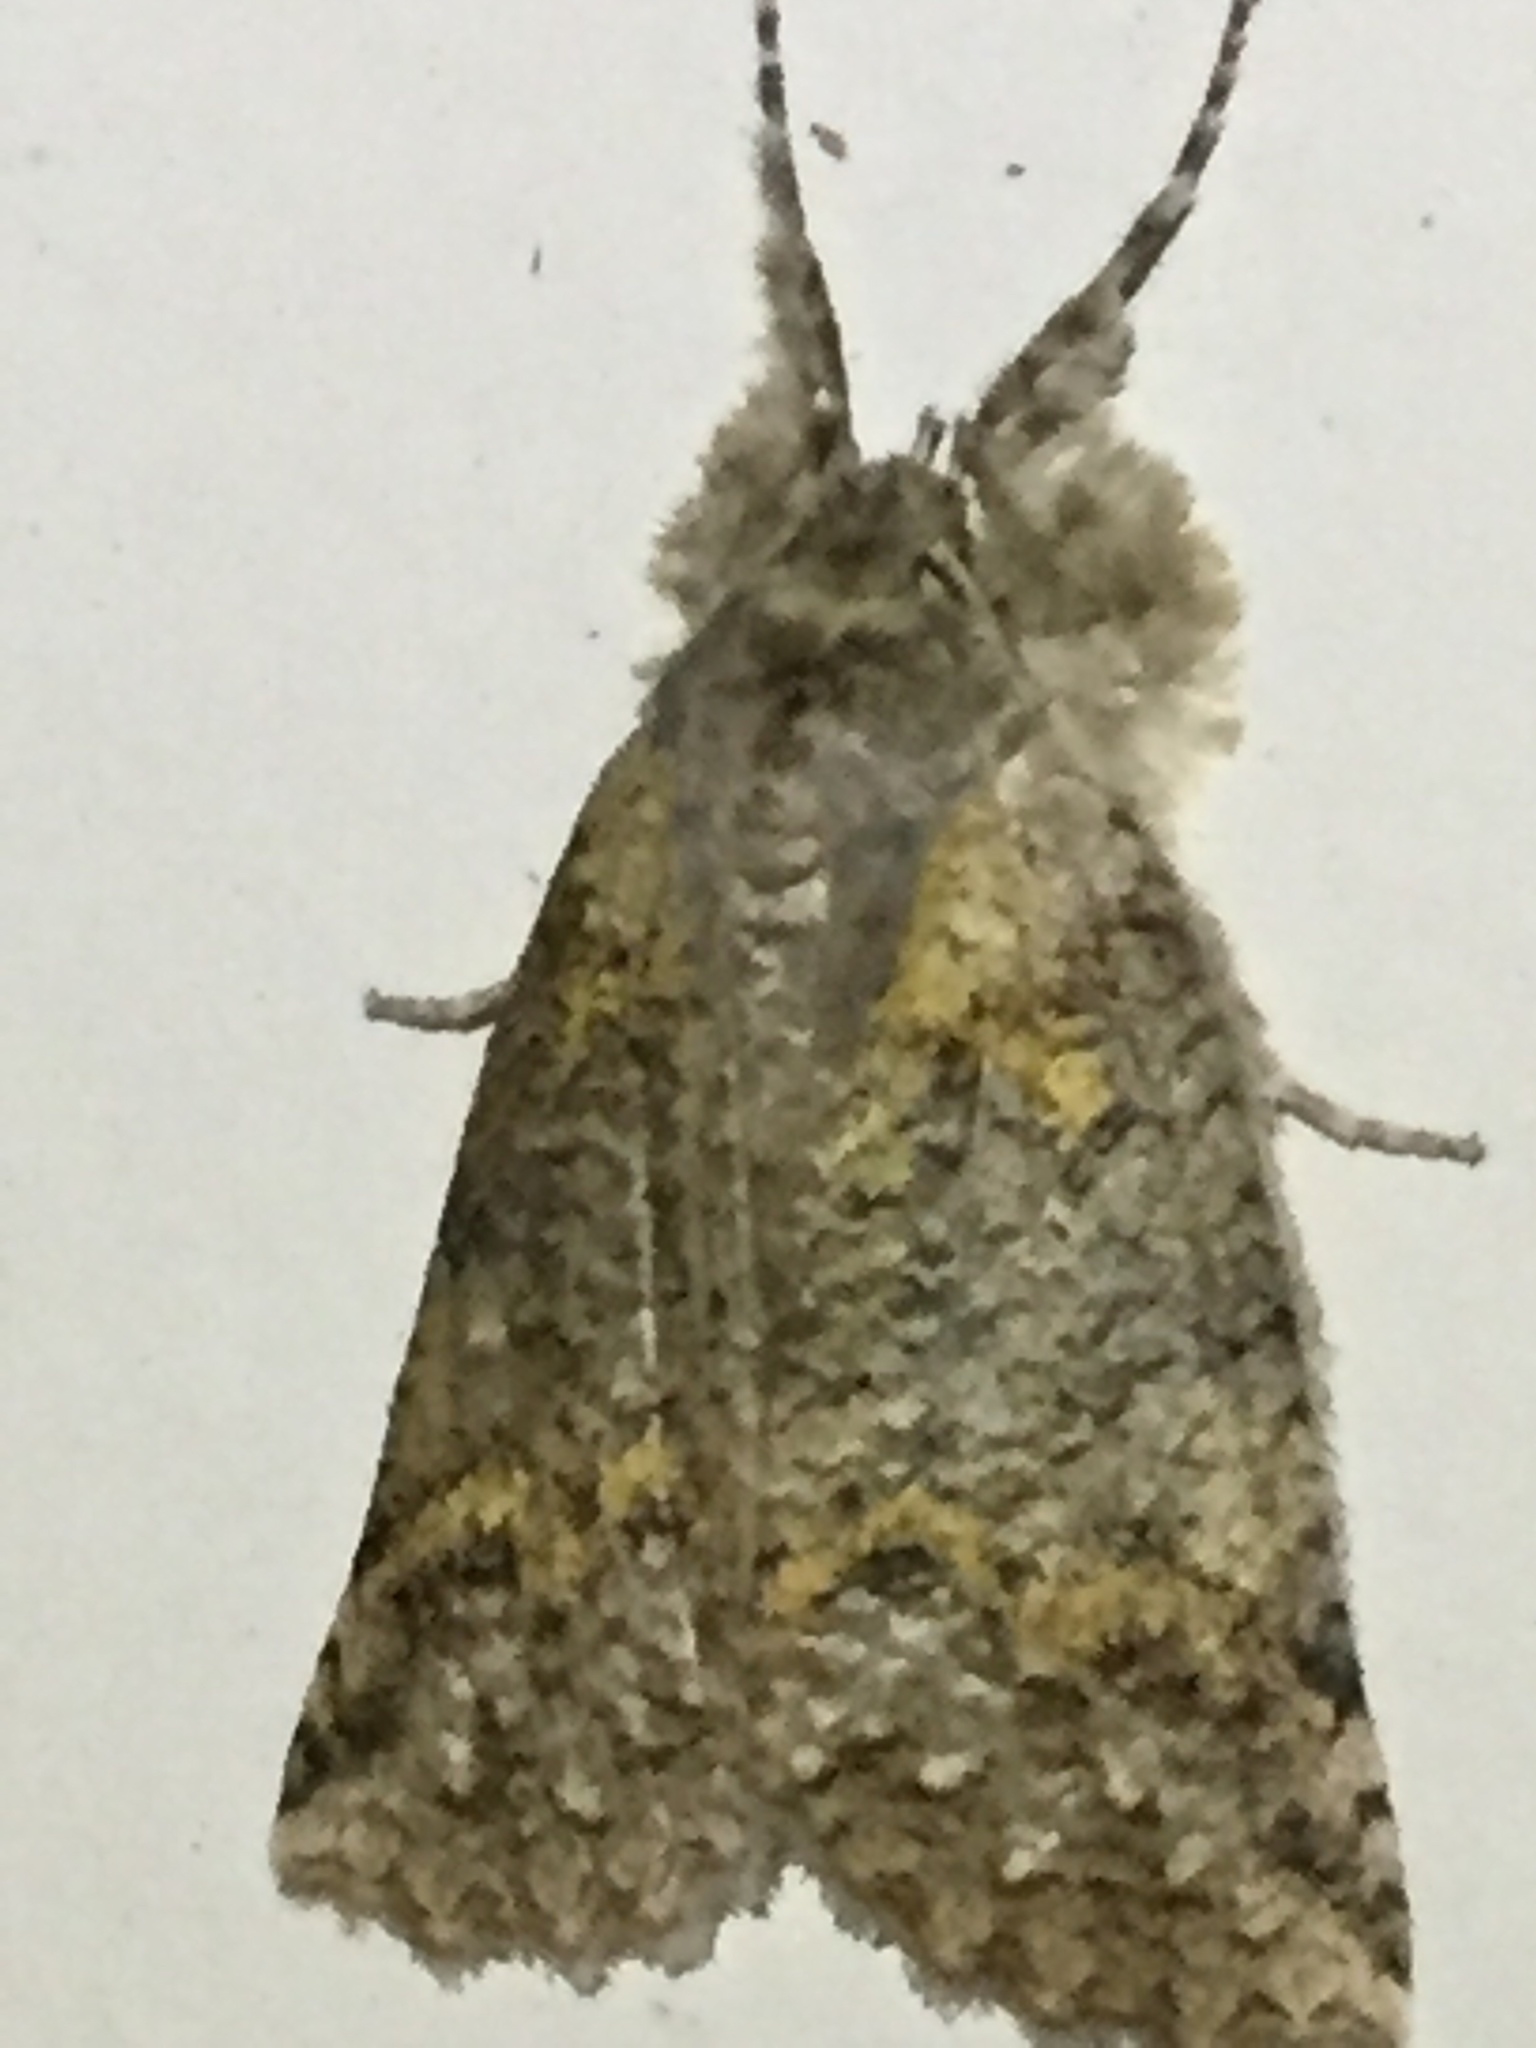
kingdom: Animalia
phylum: Arthropoda
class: Insecta
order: Lepidoptera
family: Geometridae
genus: Declana
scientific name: Declana floccosa
